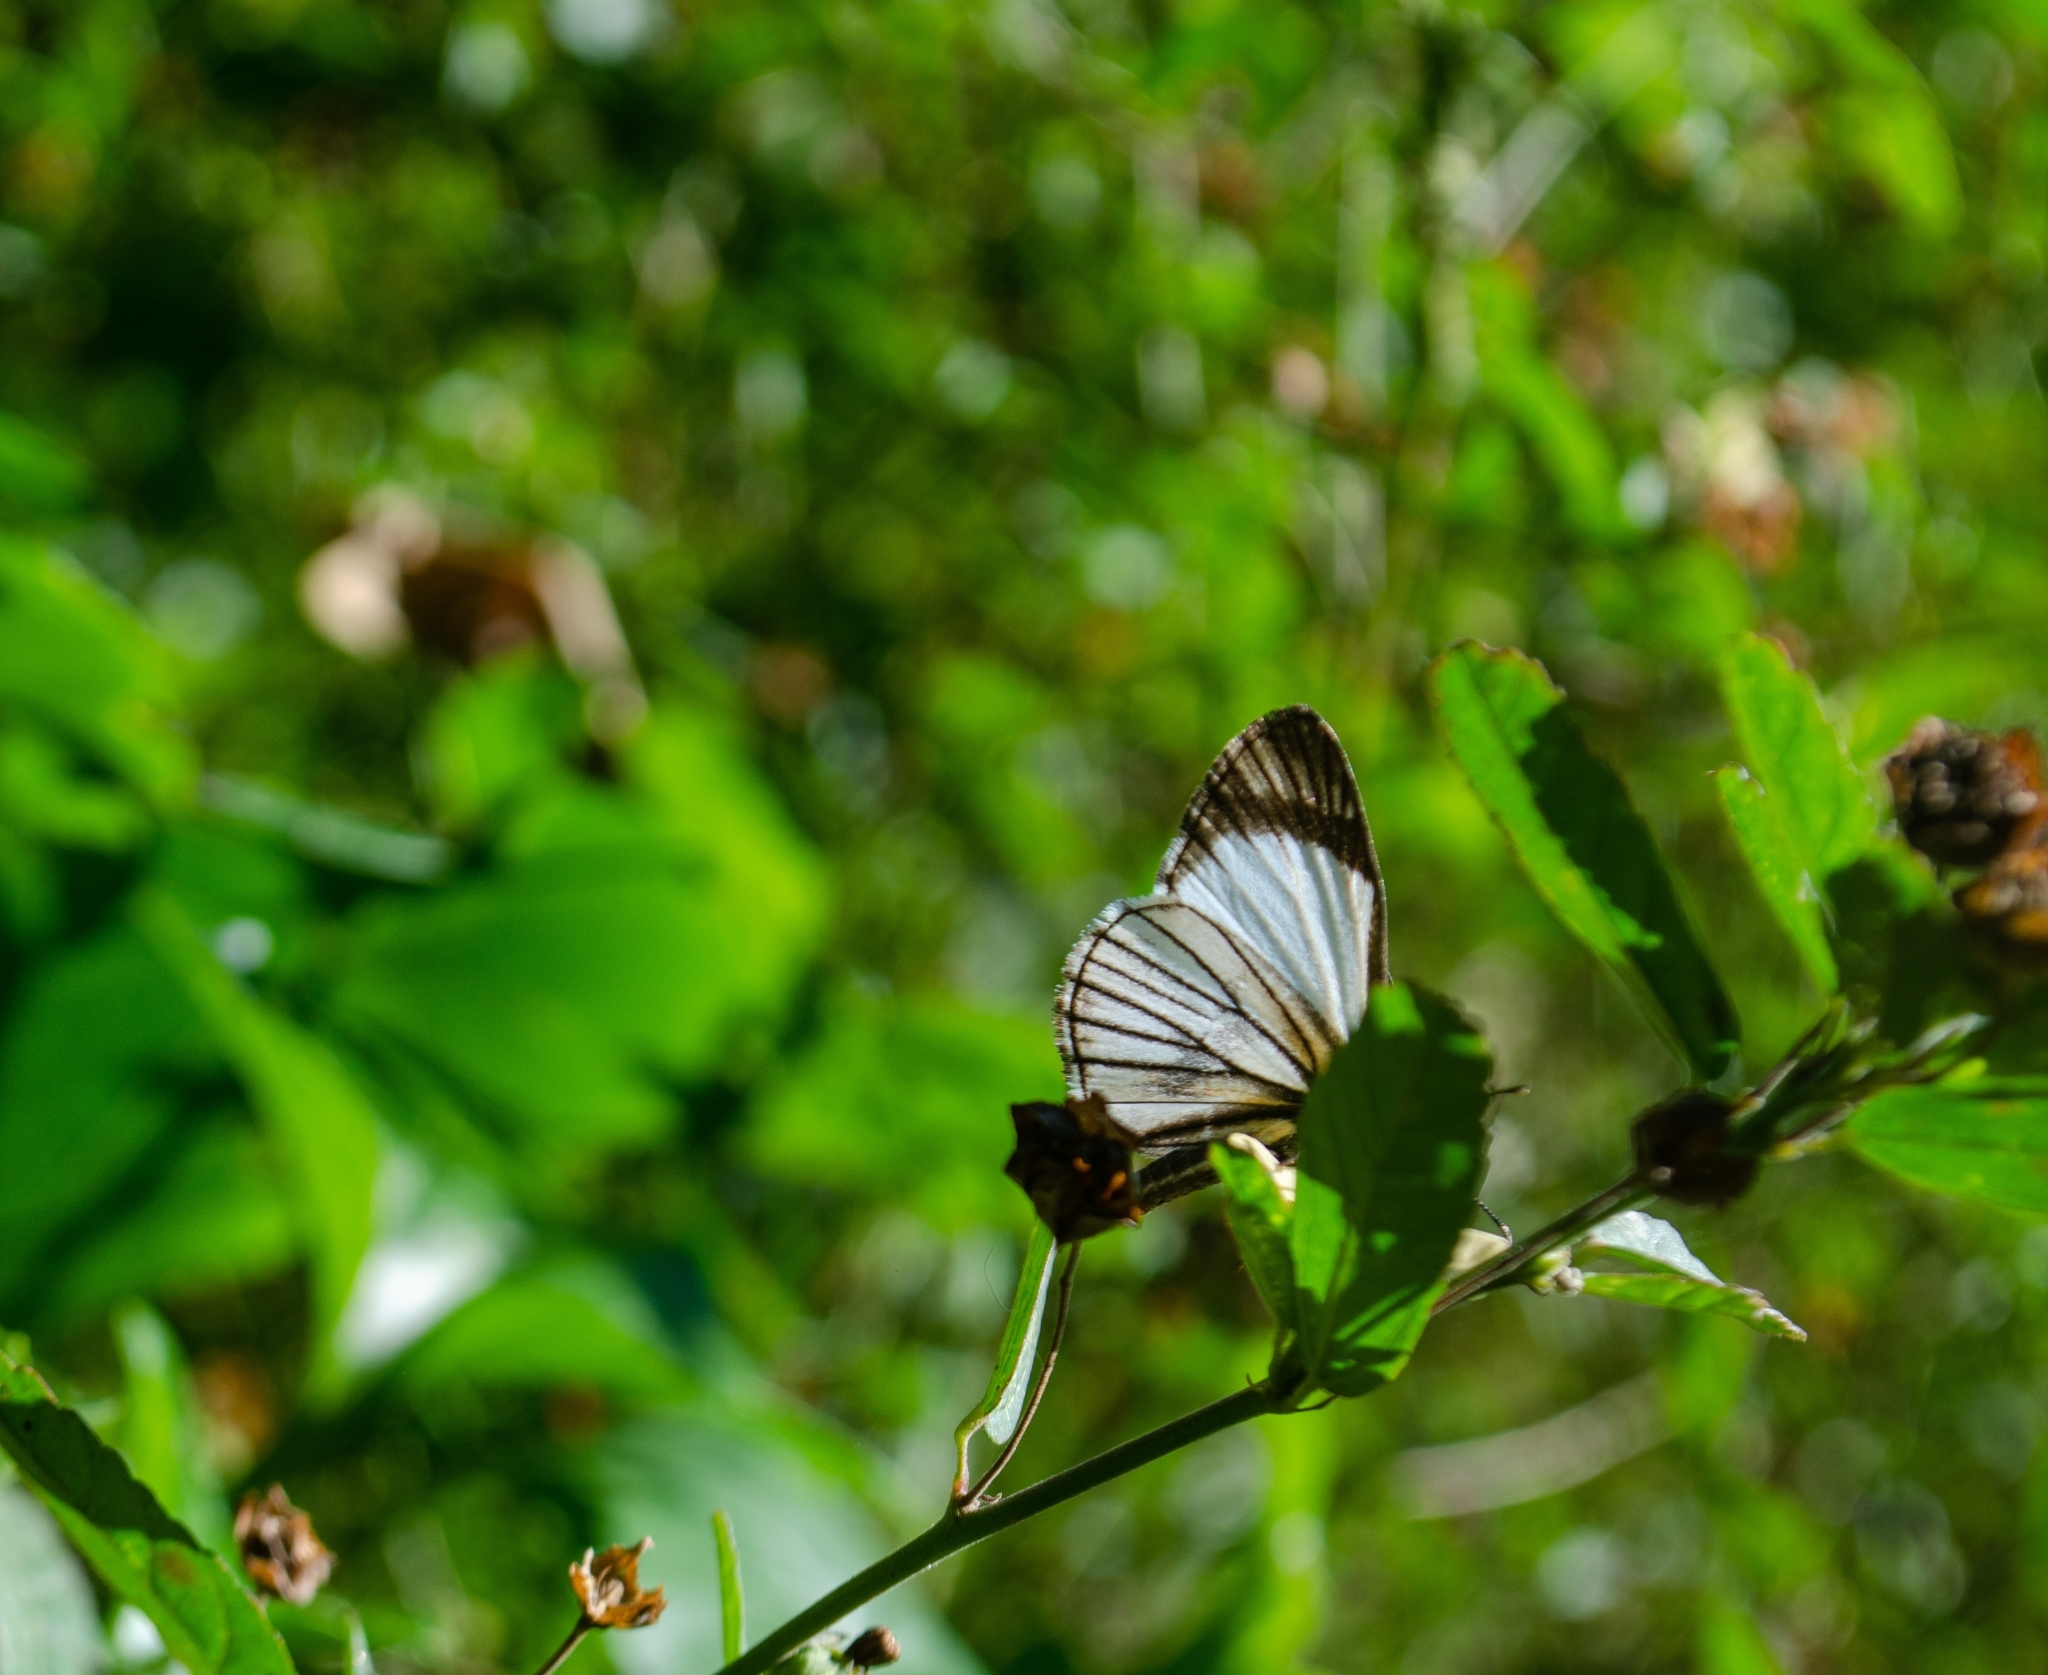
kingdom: Animalia
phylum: Arthropoda
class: Insecta
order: Lepidoptera
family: Hesperiidae
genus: Heliopetes
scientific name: Heliopetes alana
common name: Alana white-skipper
